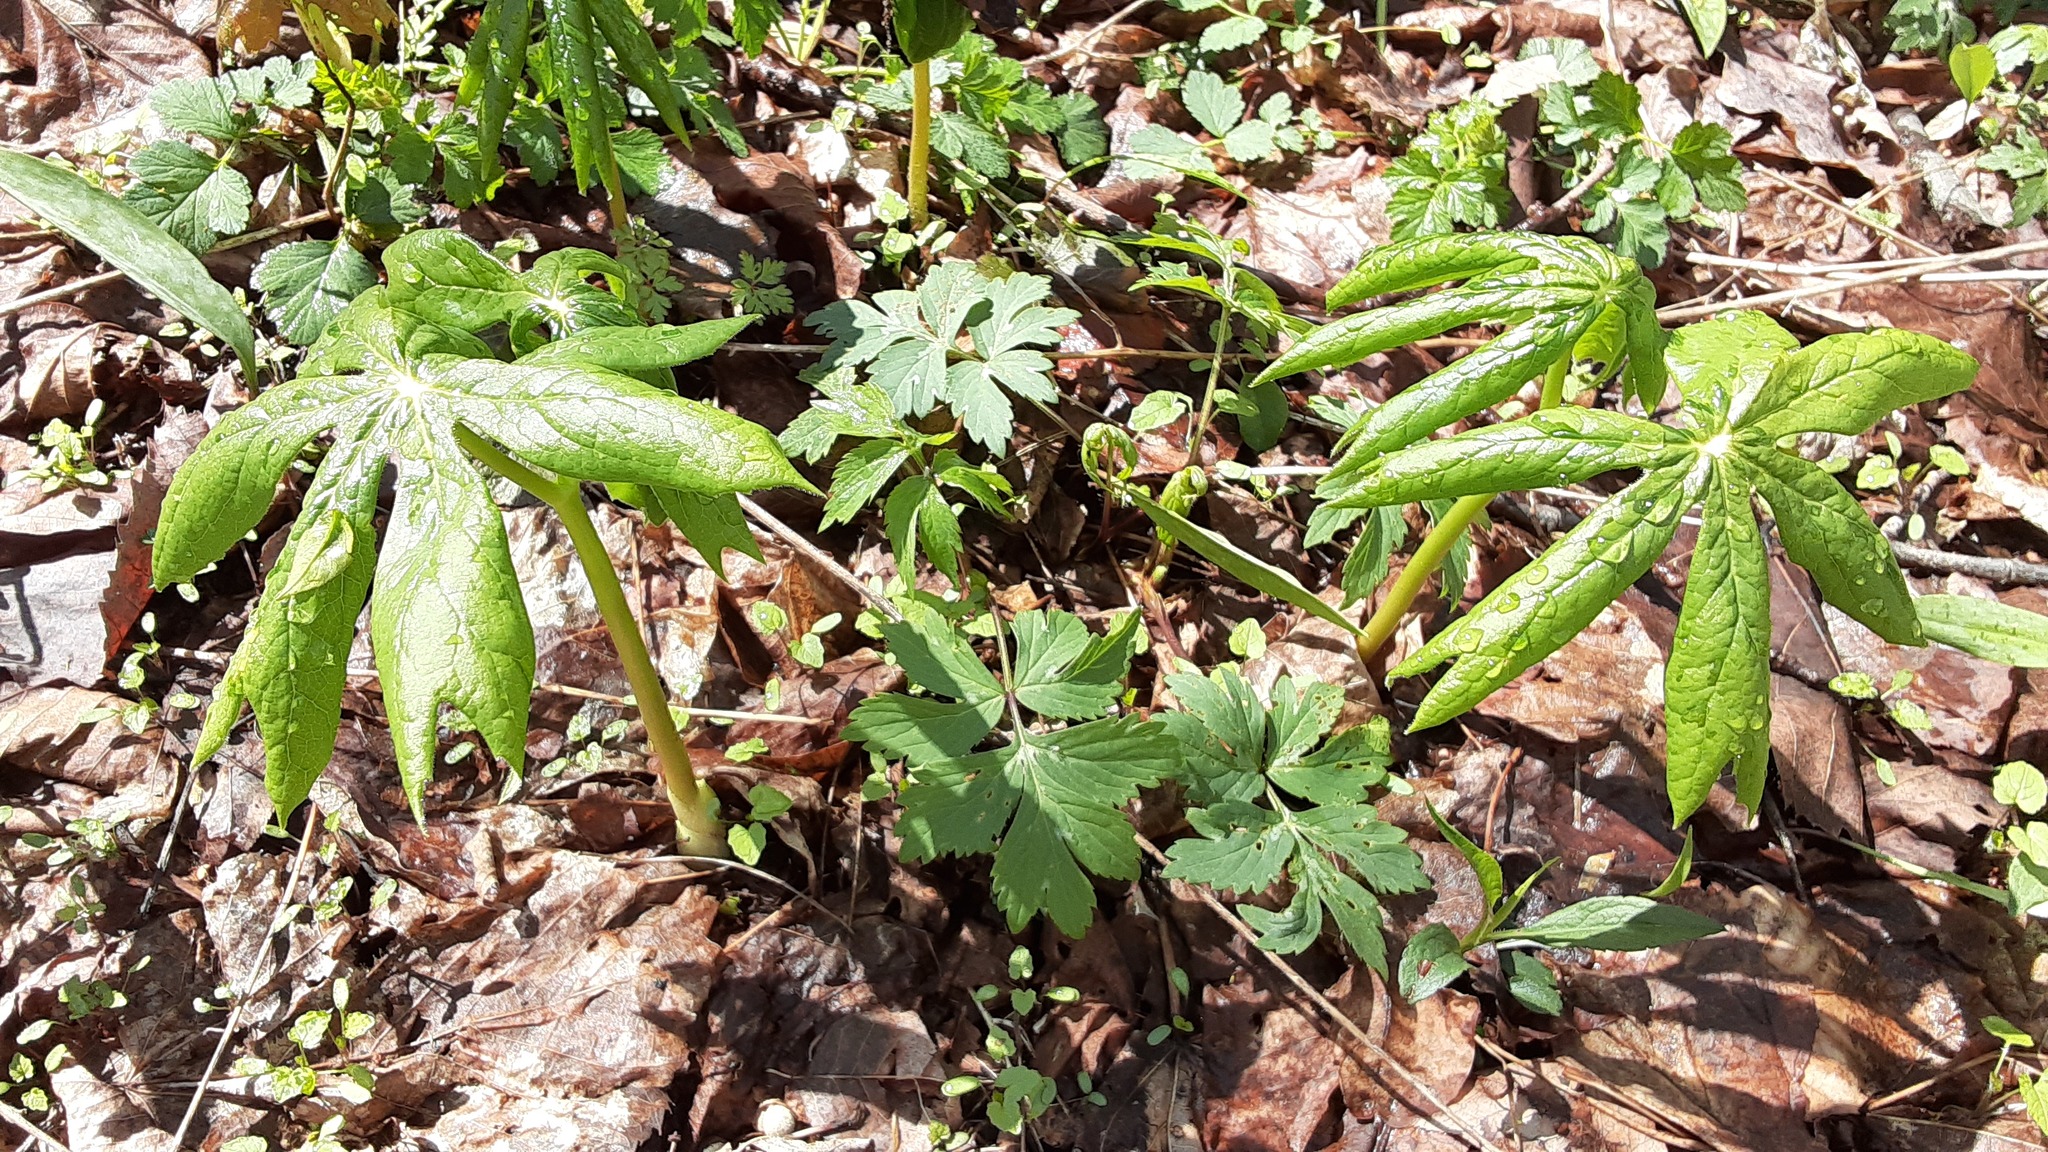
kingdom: Plantae
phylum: Tracheophyta
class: Magnoliopsida
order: Ranunculales
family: Berberidaceae
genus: Podophyllum
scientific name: Podophyllum peltatum
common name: Wild mandrake
